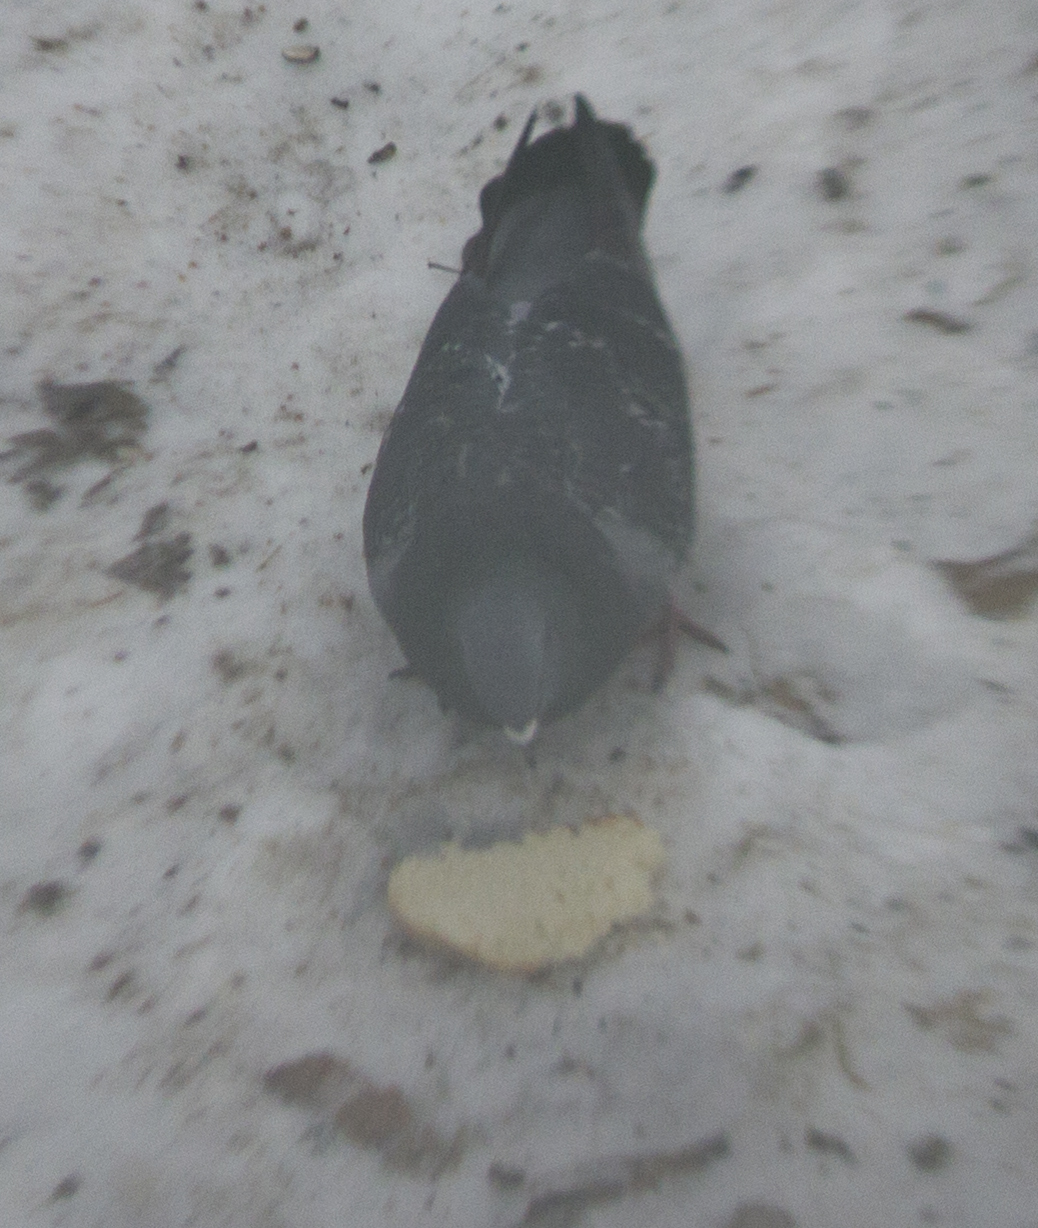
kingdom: Animalia
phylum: Chordata
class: Aves
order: Columbiformes
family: Columbidae
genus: Columba
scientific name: Columba livia
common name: Rock pigeon
